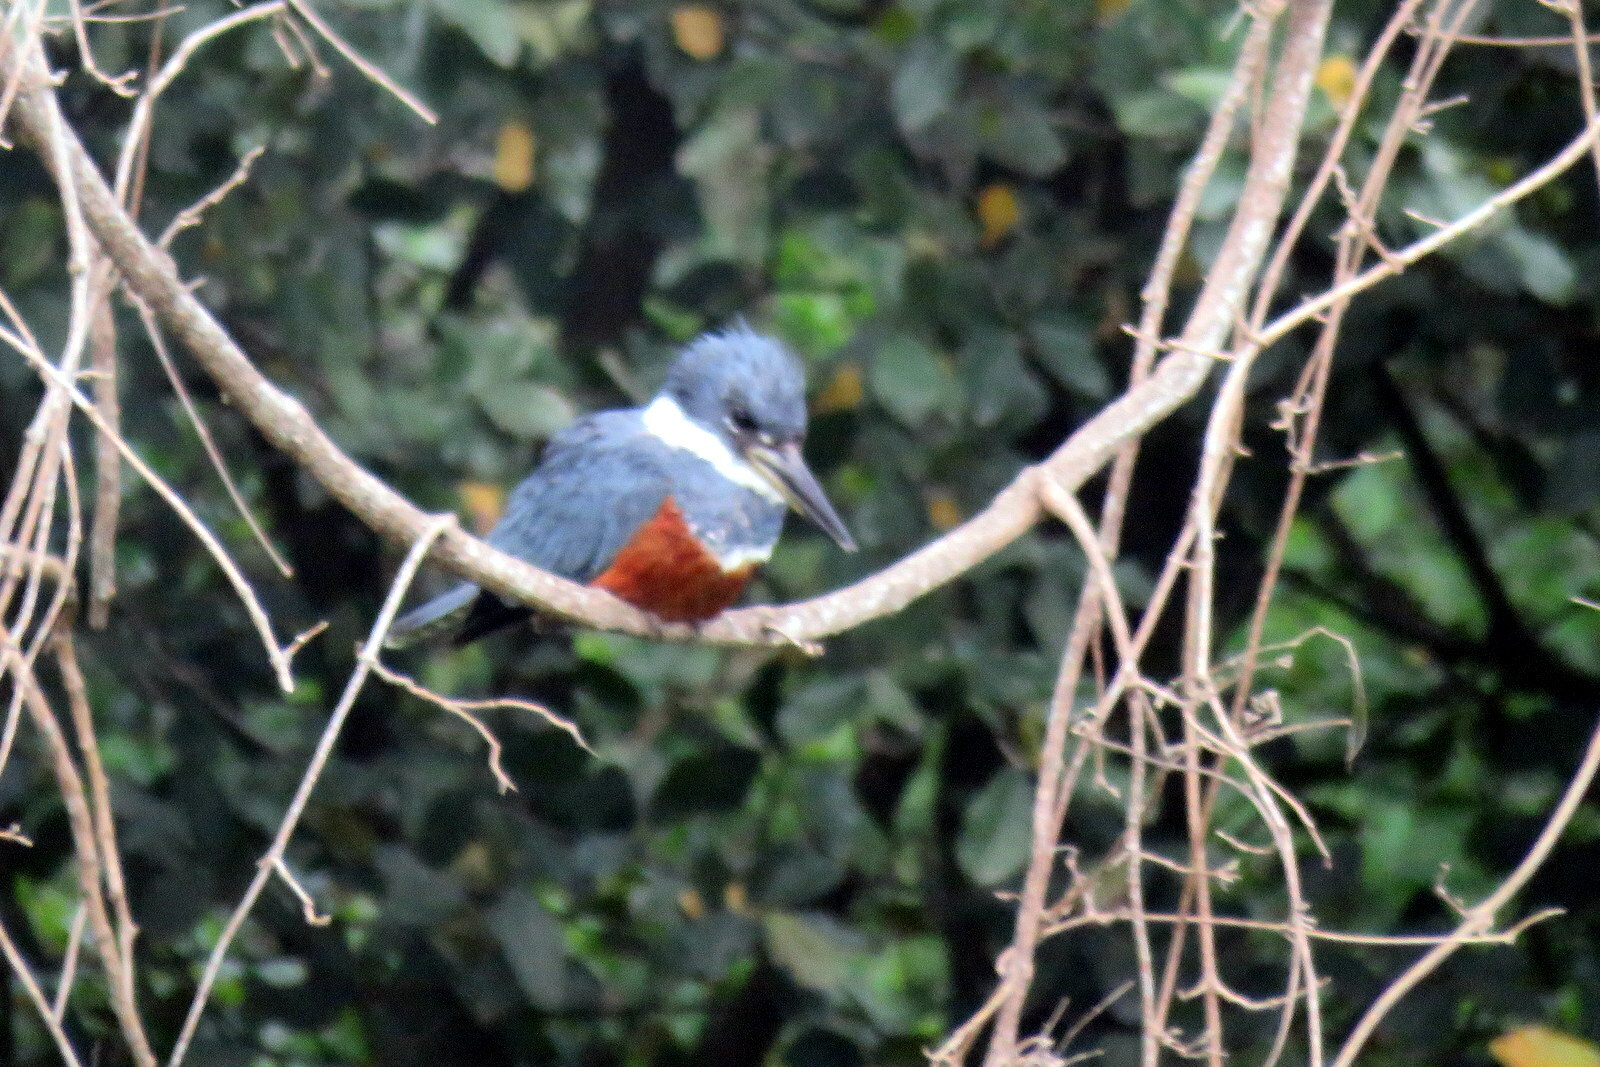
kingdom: Animalia
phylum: Chordata
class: Aves
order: Coraciiformes
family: Alcedinidae
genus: Megaceryle
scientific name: Megaceryle torquata
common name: Ringed kingfisher
